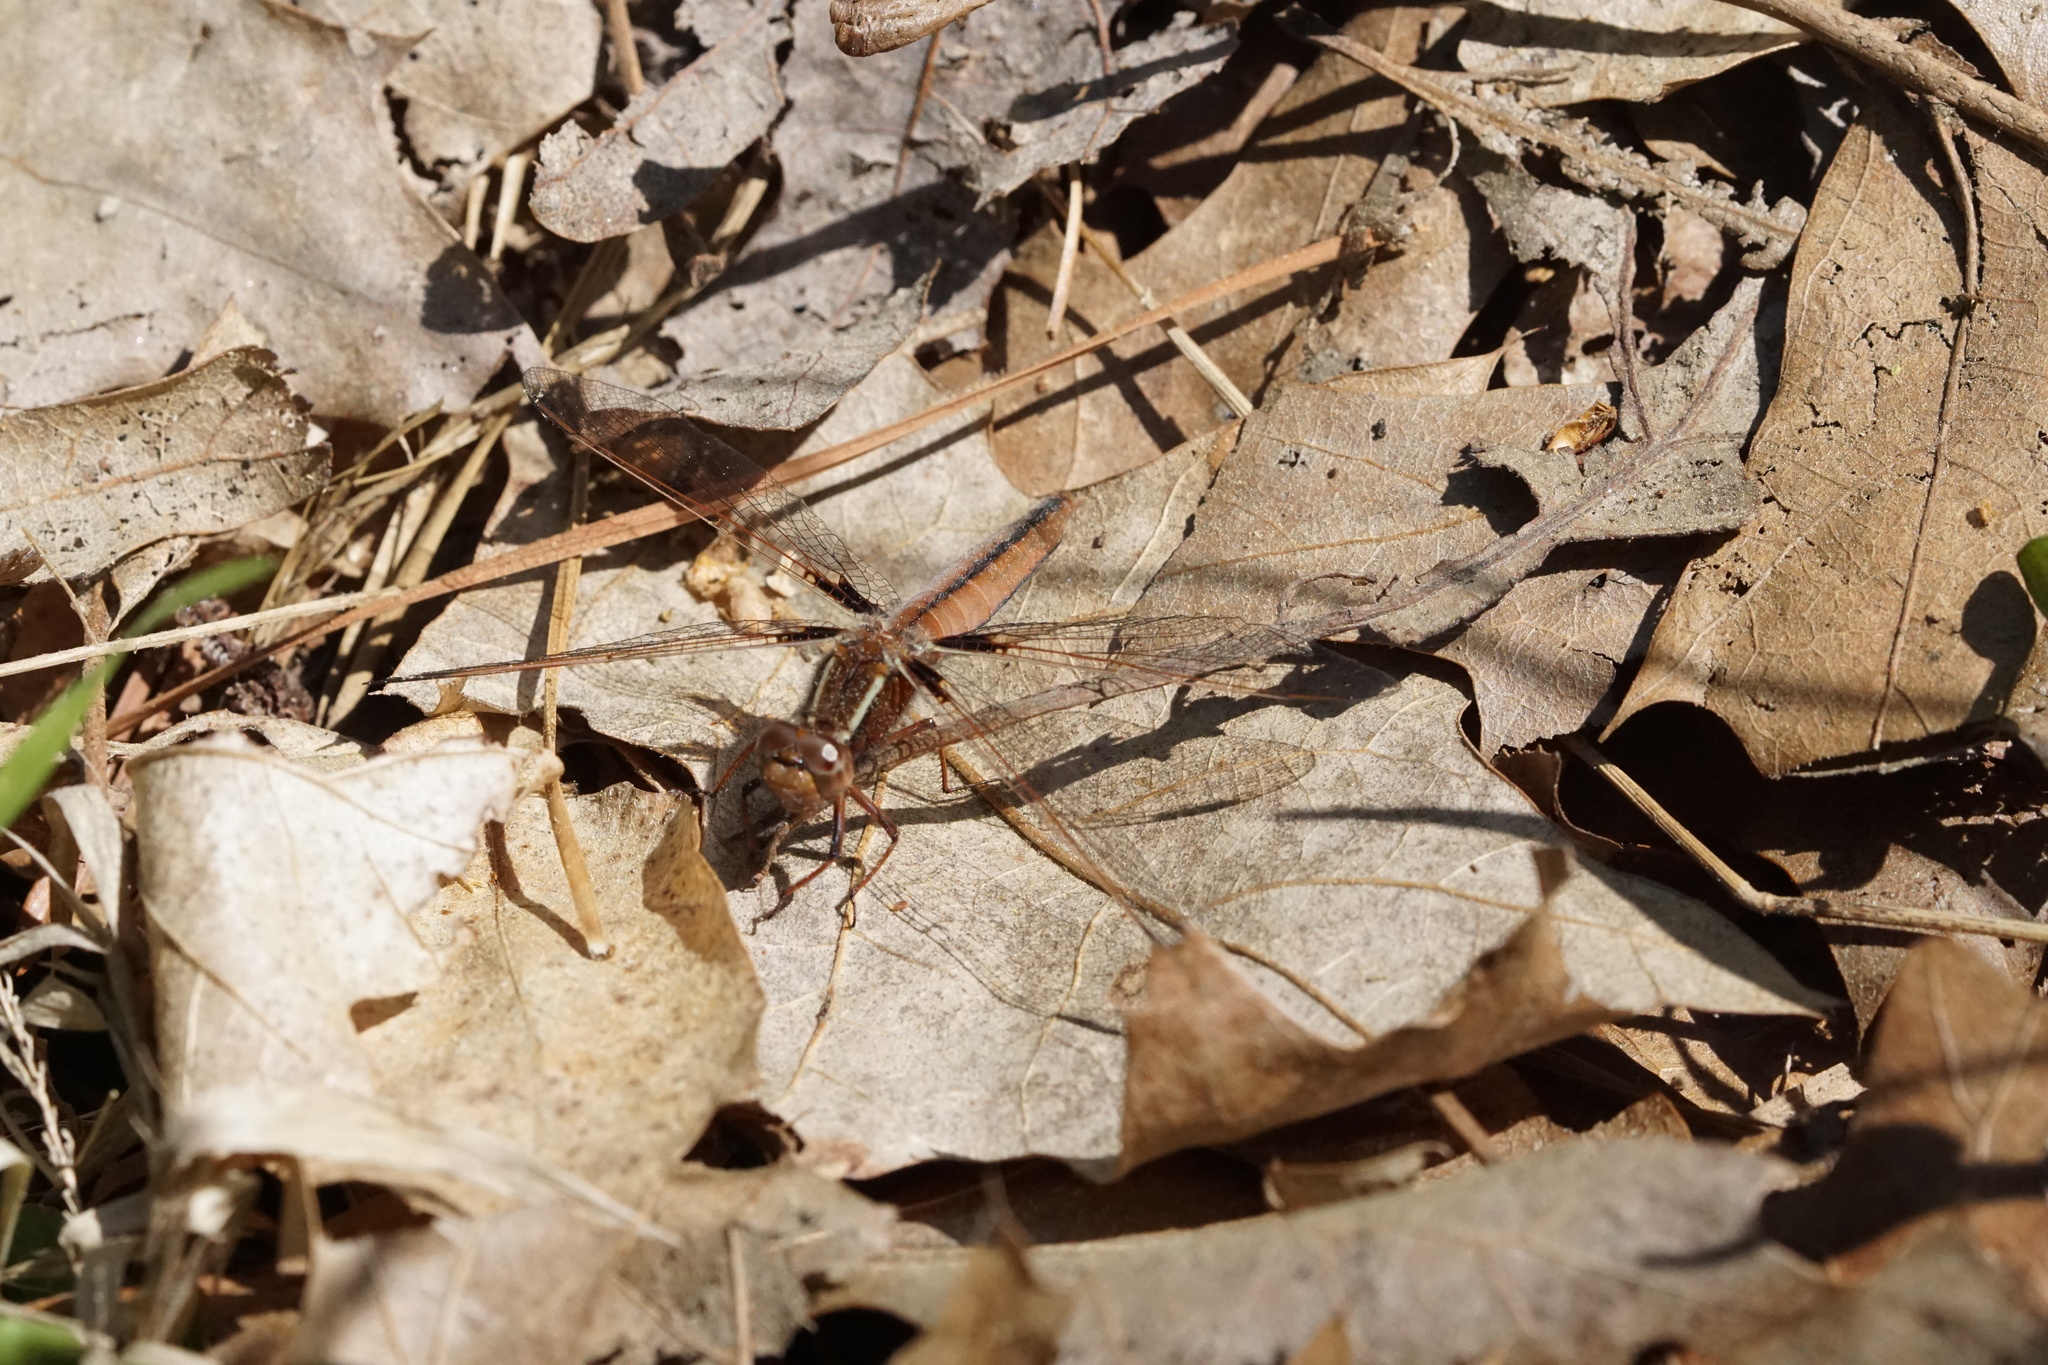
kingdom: Animalia
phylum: Arthropoda
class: Insecta
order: Odonata
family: Libellulidae
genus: Ladona
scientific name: Ladona exusta
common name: Libellule embrasée
